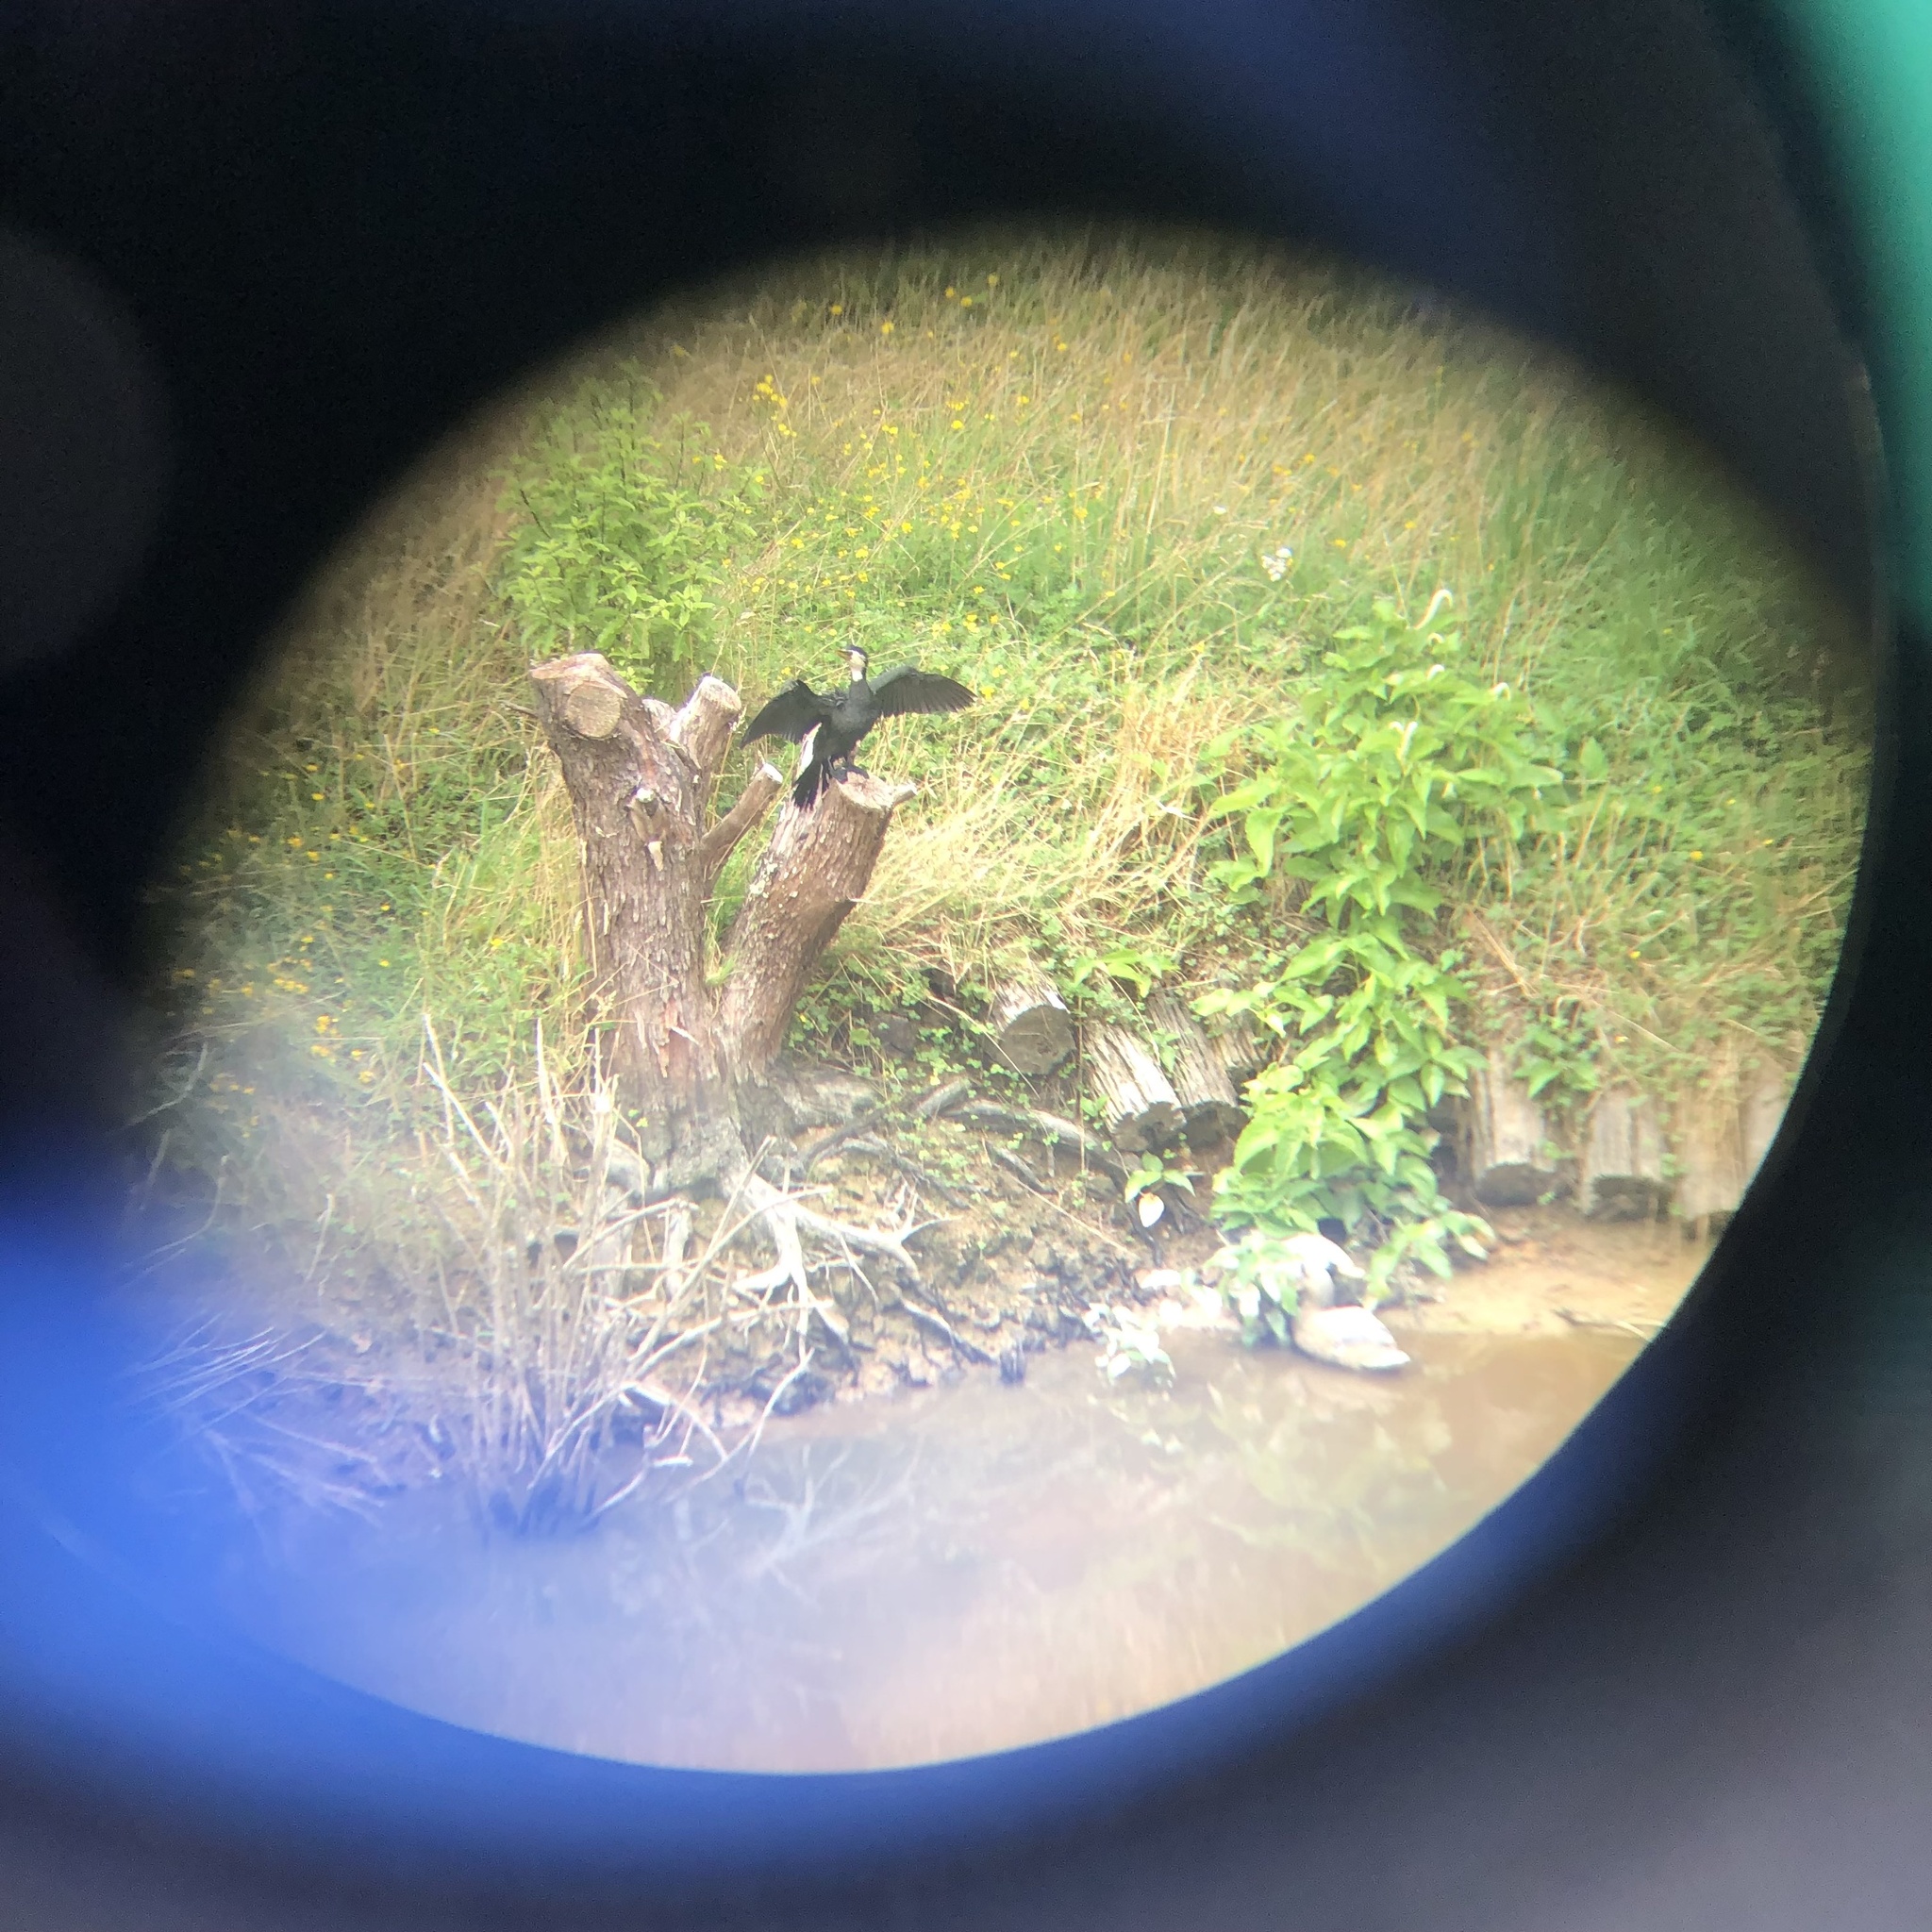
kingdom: Animalia
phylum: Chordata
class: Aves
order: Suliformes
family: Phalacrocoracidae
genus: Microcarbo
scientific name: Microcarbo melanoleucos
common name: Little pied cormorant
